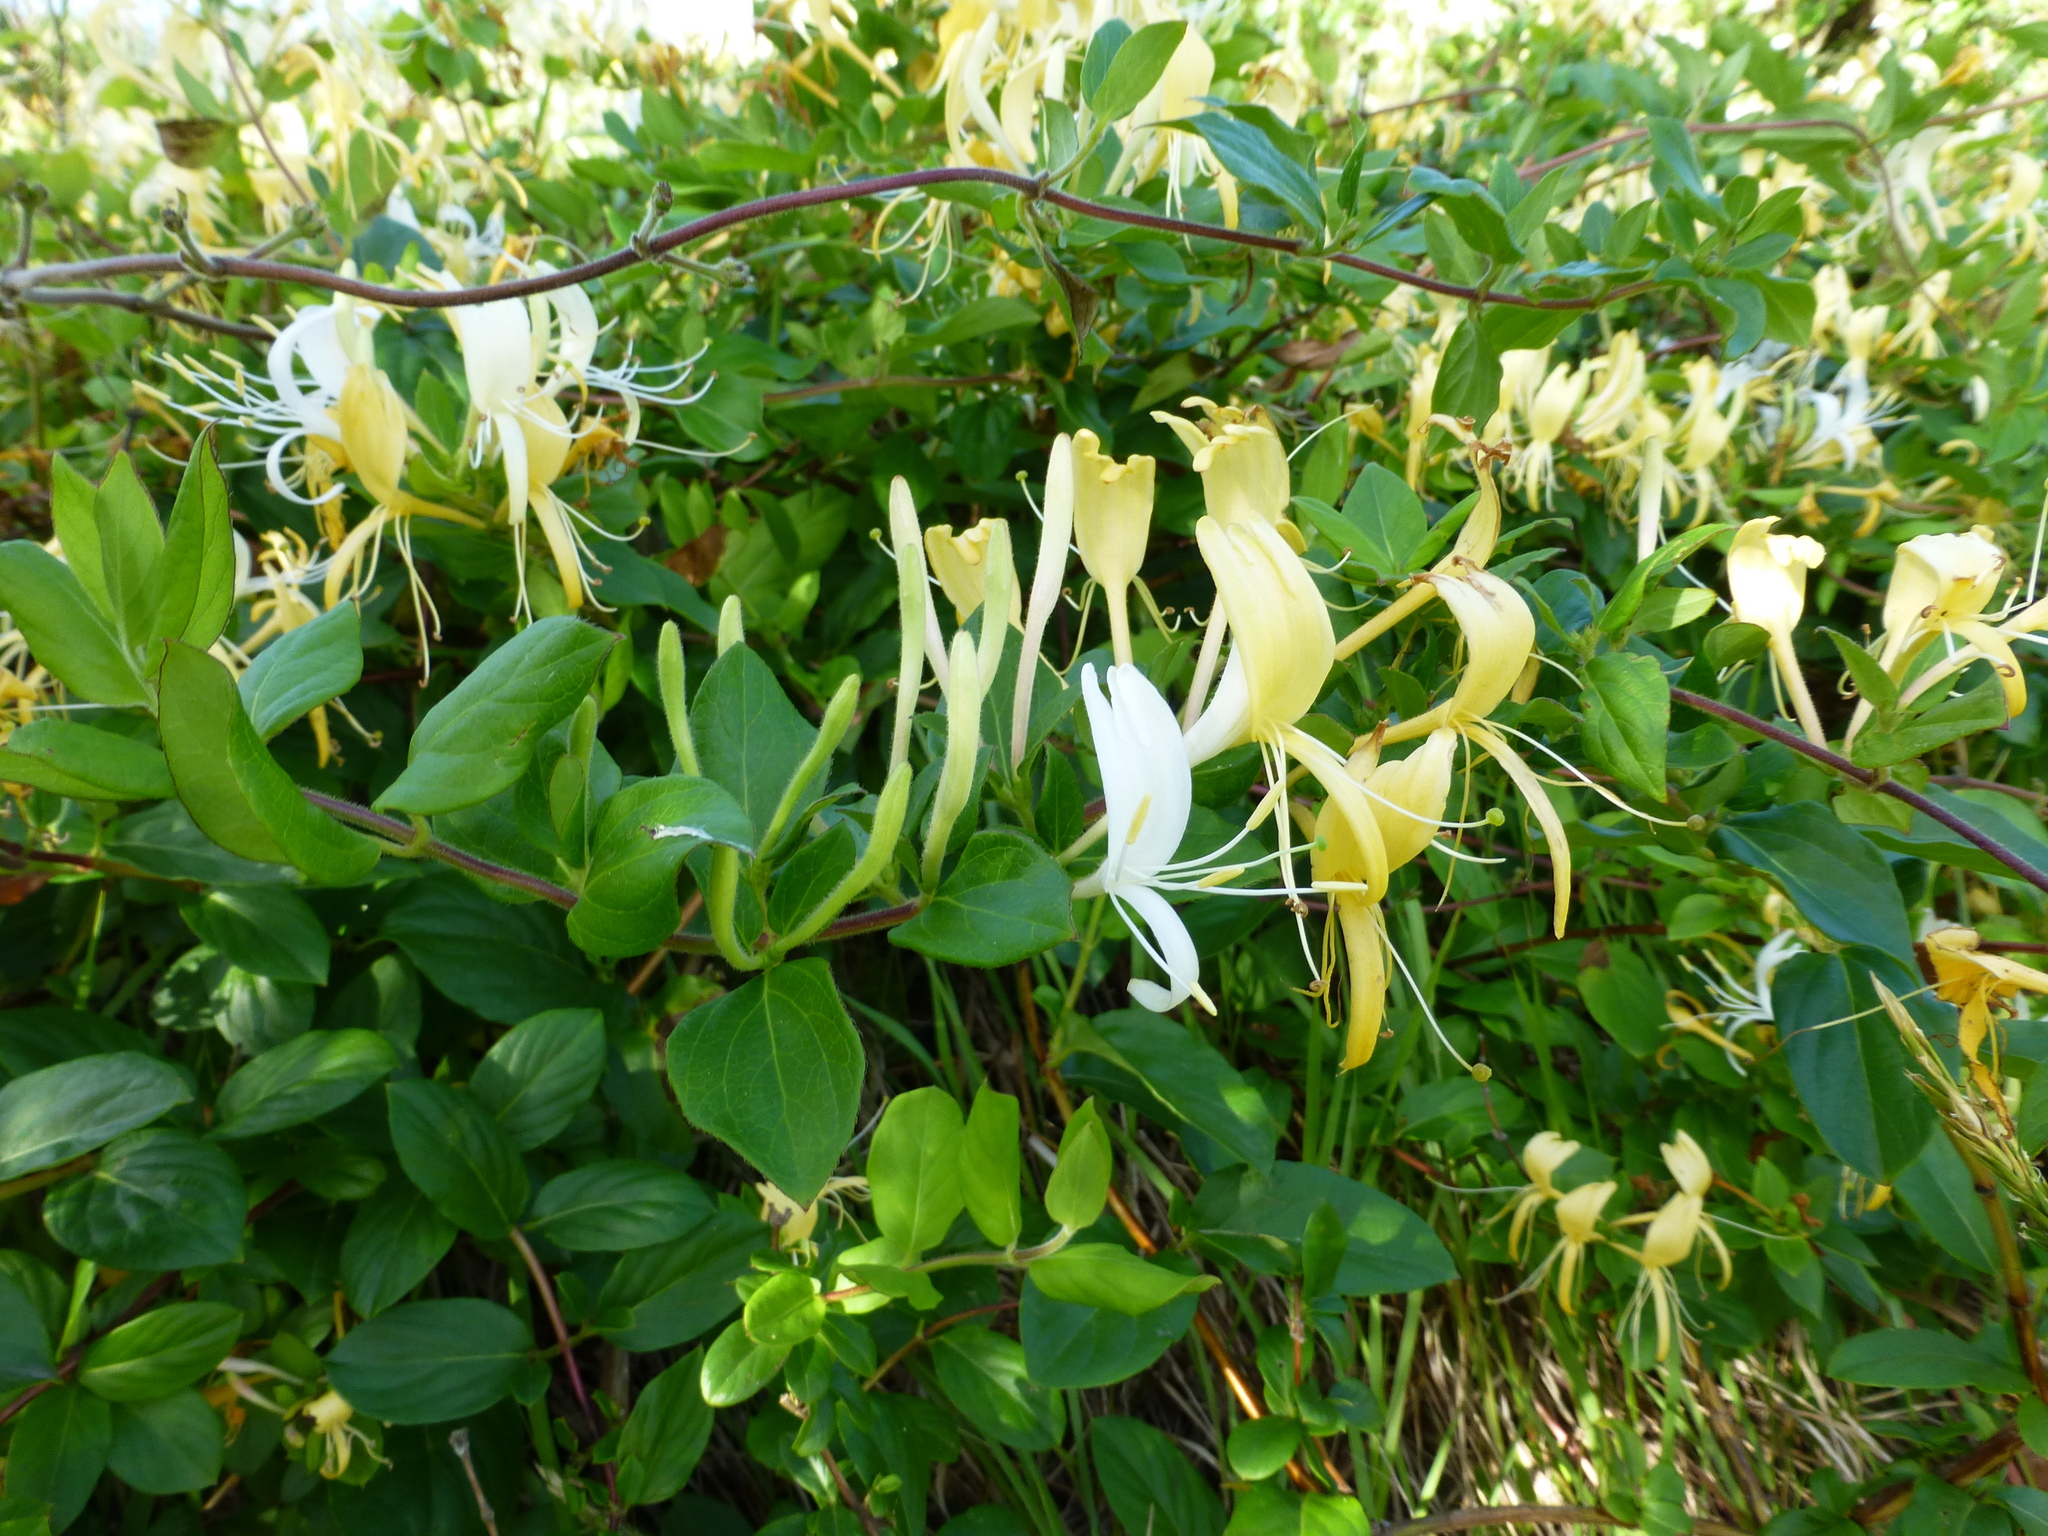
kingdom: Plantae
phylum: Tracheophyta
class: Magnoliopsida
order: Dipsacales
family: Caprifoliaceae
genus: Lonicera
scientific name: Lonicera japonica
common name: Japanese honeysuckle
